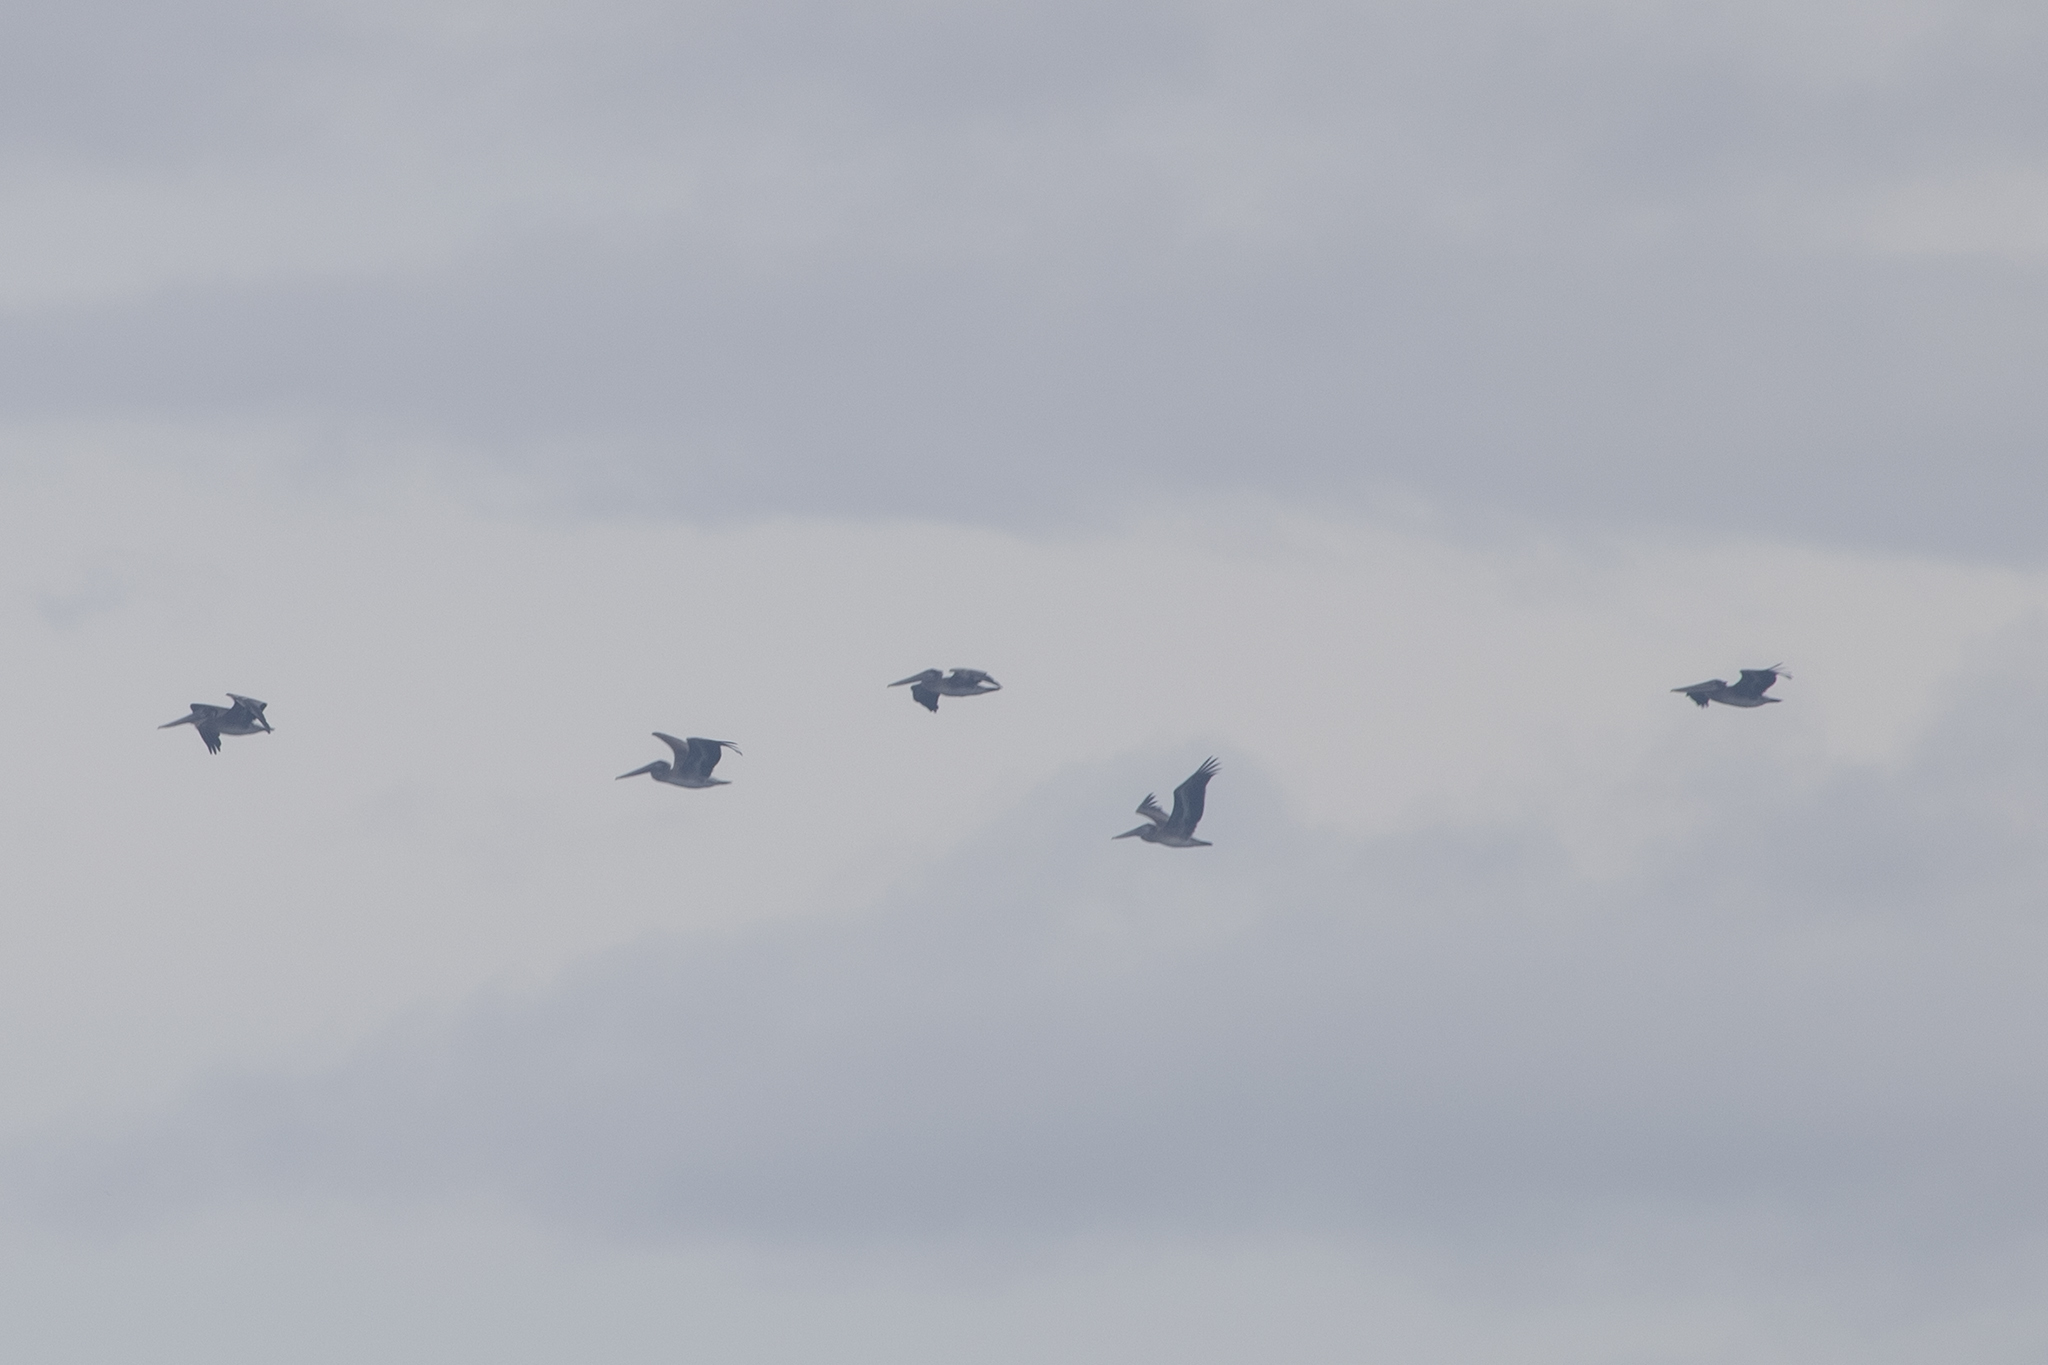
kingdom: Animalia
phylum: Chordata
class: Aves
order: Pelecaniformes
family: Pelecanidae
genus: Pelecanus
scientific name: Pelecanus occidentalis
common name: Brown pelican
